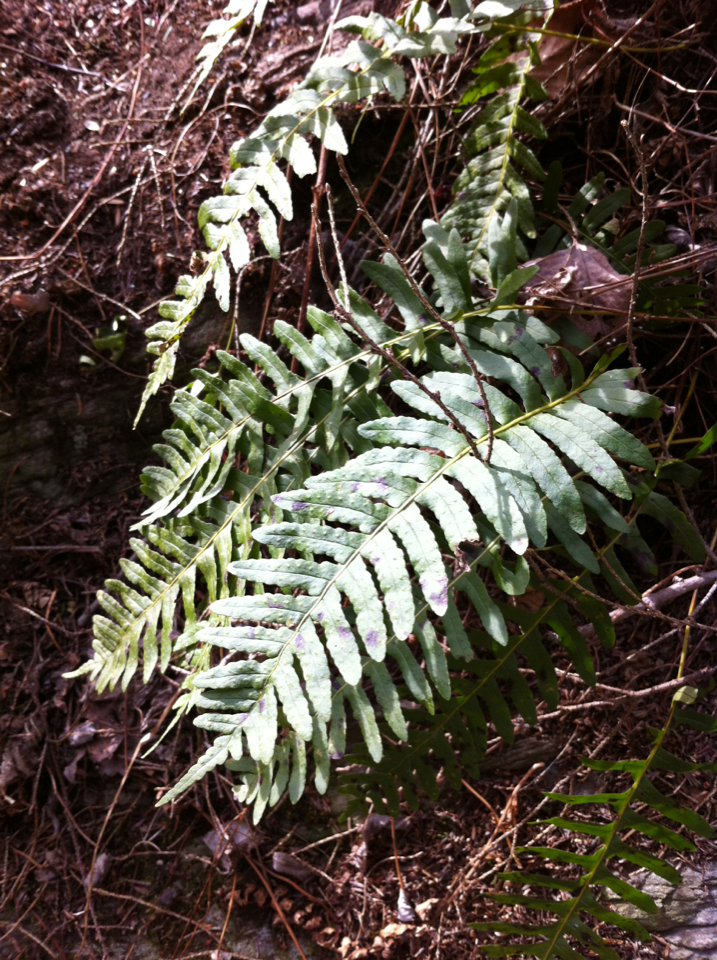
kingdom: Plantae
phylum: Tracheophyta
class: Polypodiopsida
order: Polypodiales
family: Polypodiaceae
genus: Polypodium
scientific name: Polypodium virginianum
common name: American wall fern
